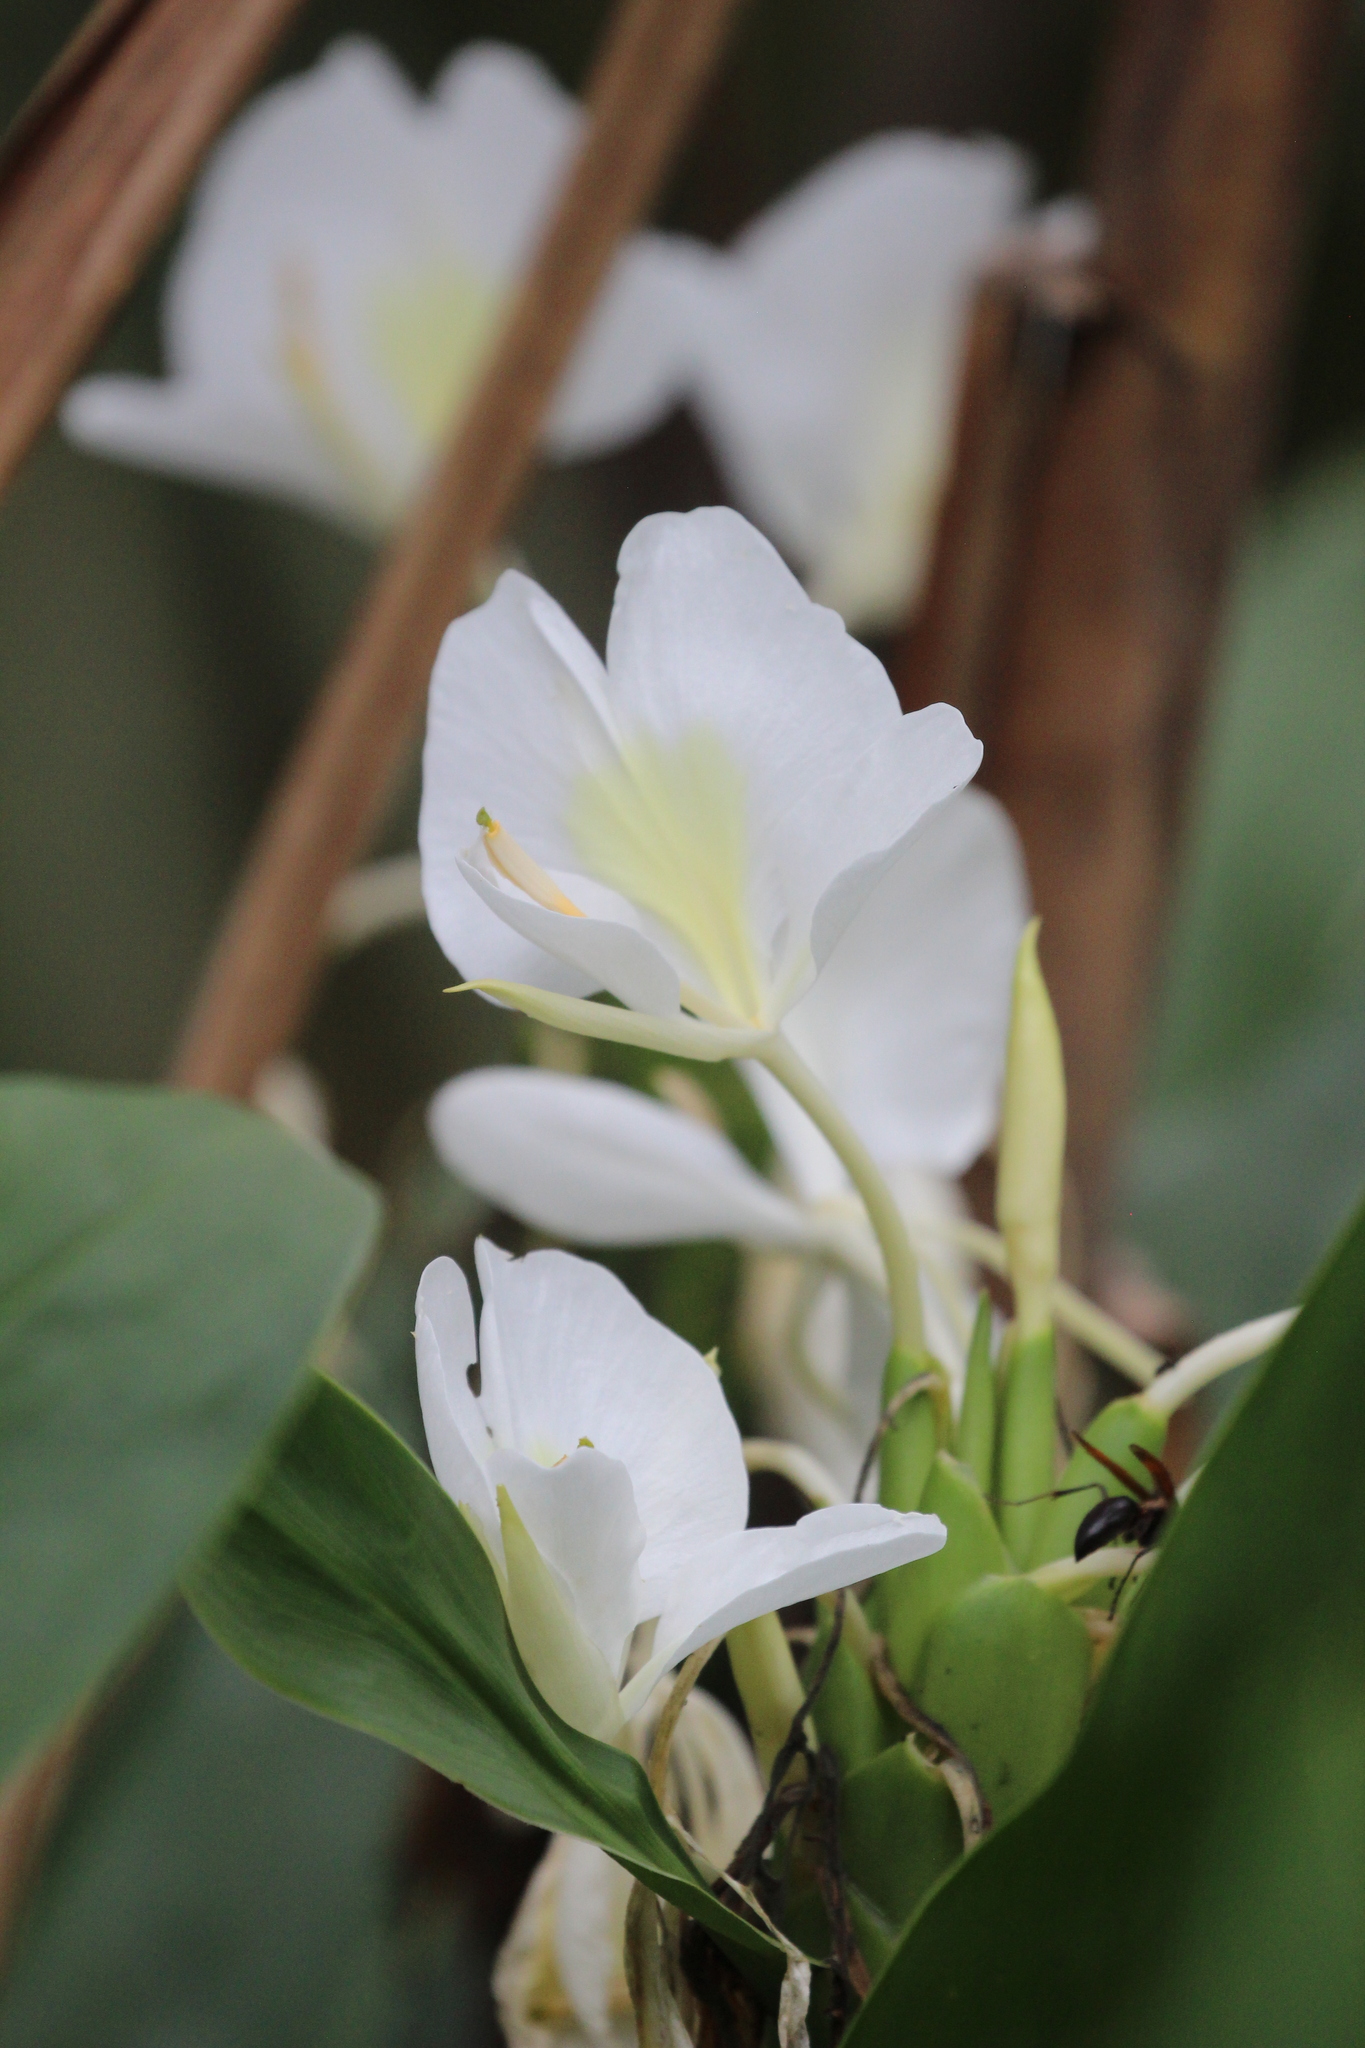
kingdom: Plantae
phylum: Tracheophyta
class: Liliopsida
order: Zingiberales
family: Zingiberaceae
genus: Hedychium
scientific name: Hedychium coronarium
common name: White garland-lily
